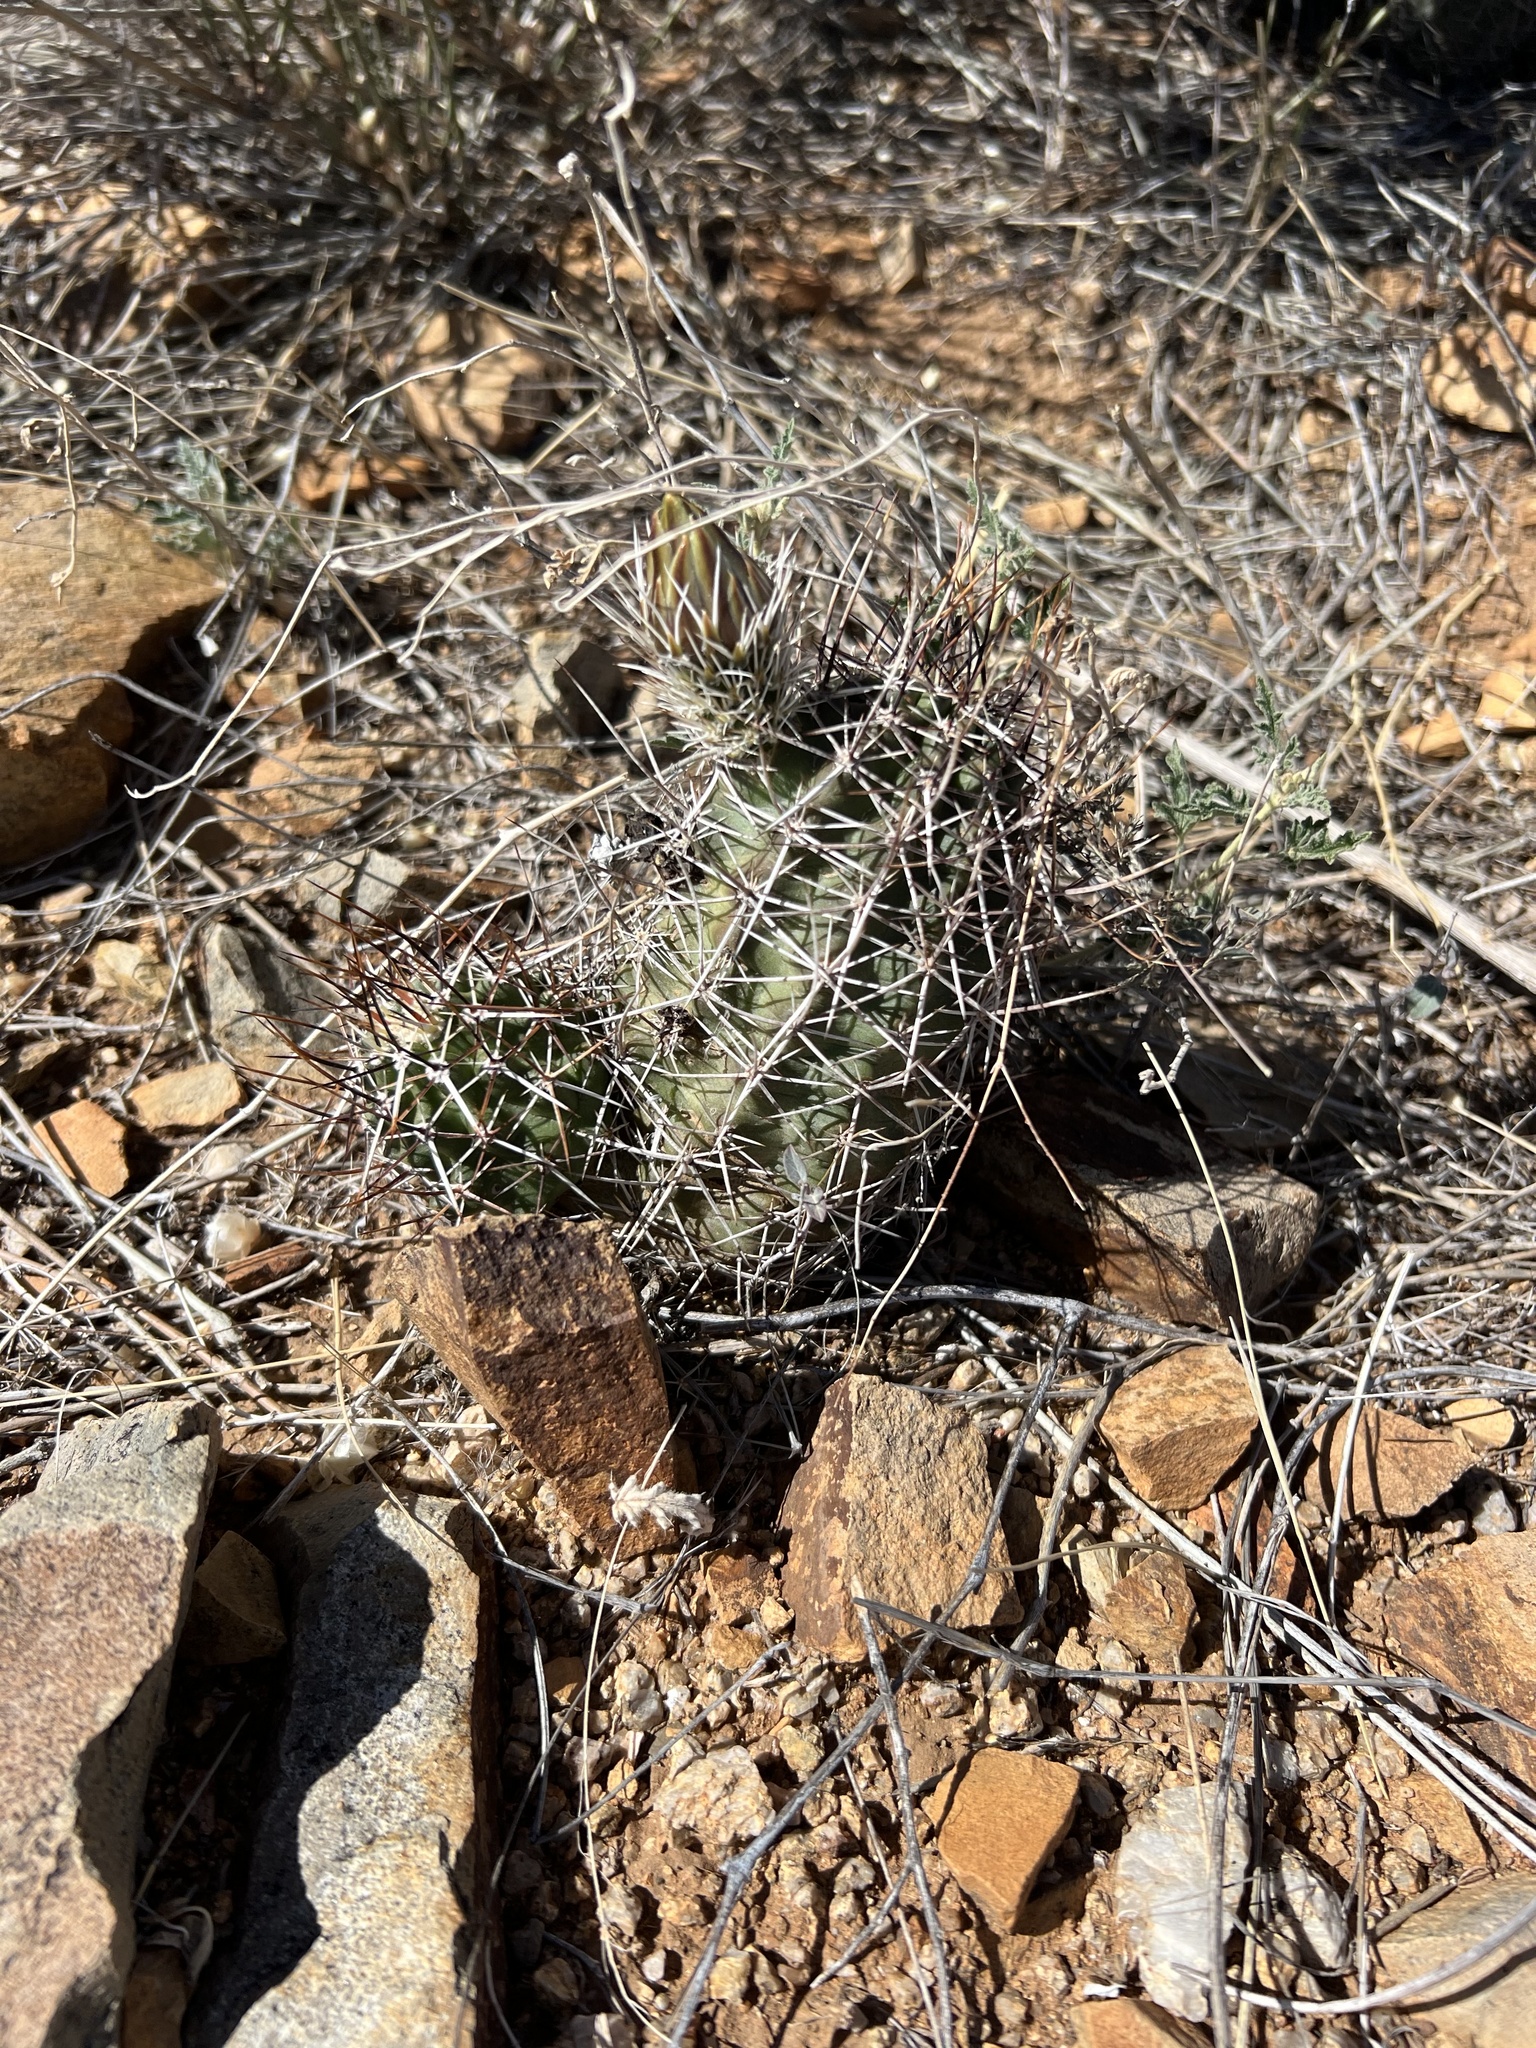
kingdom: Plantae
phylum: Tracheophyta
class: Magnoliopsida
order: Caryophyllales
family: Cactaceae
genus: Echinocereus
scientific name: Echinocereus fendleri
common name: Fendler's hedgehog cactus
